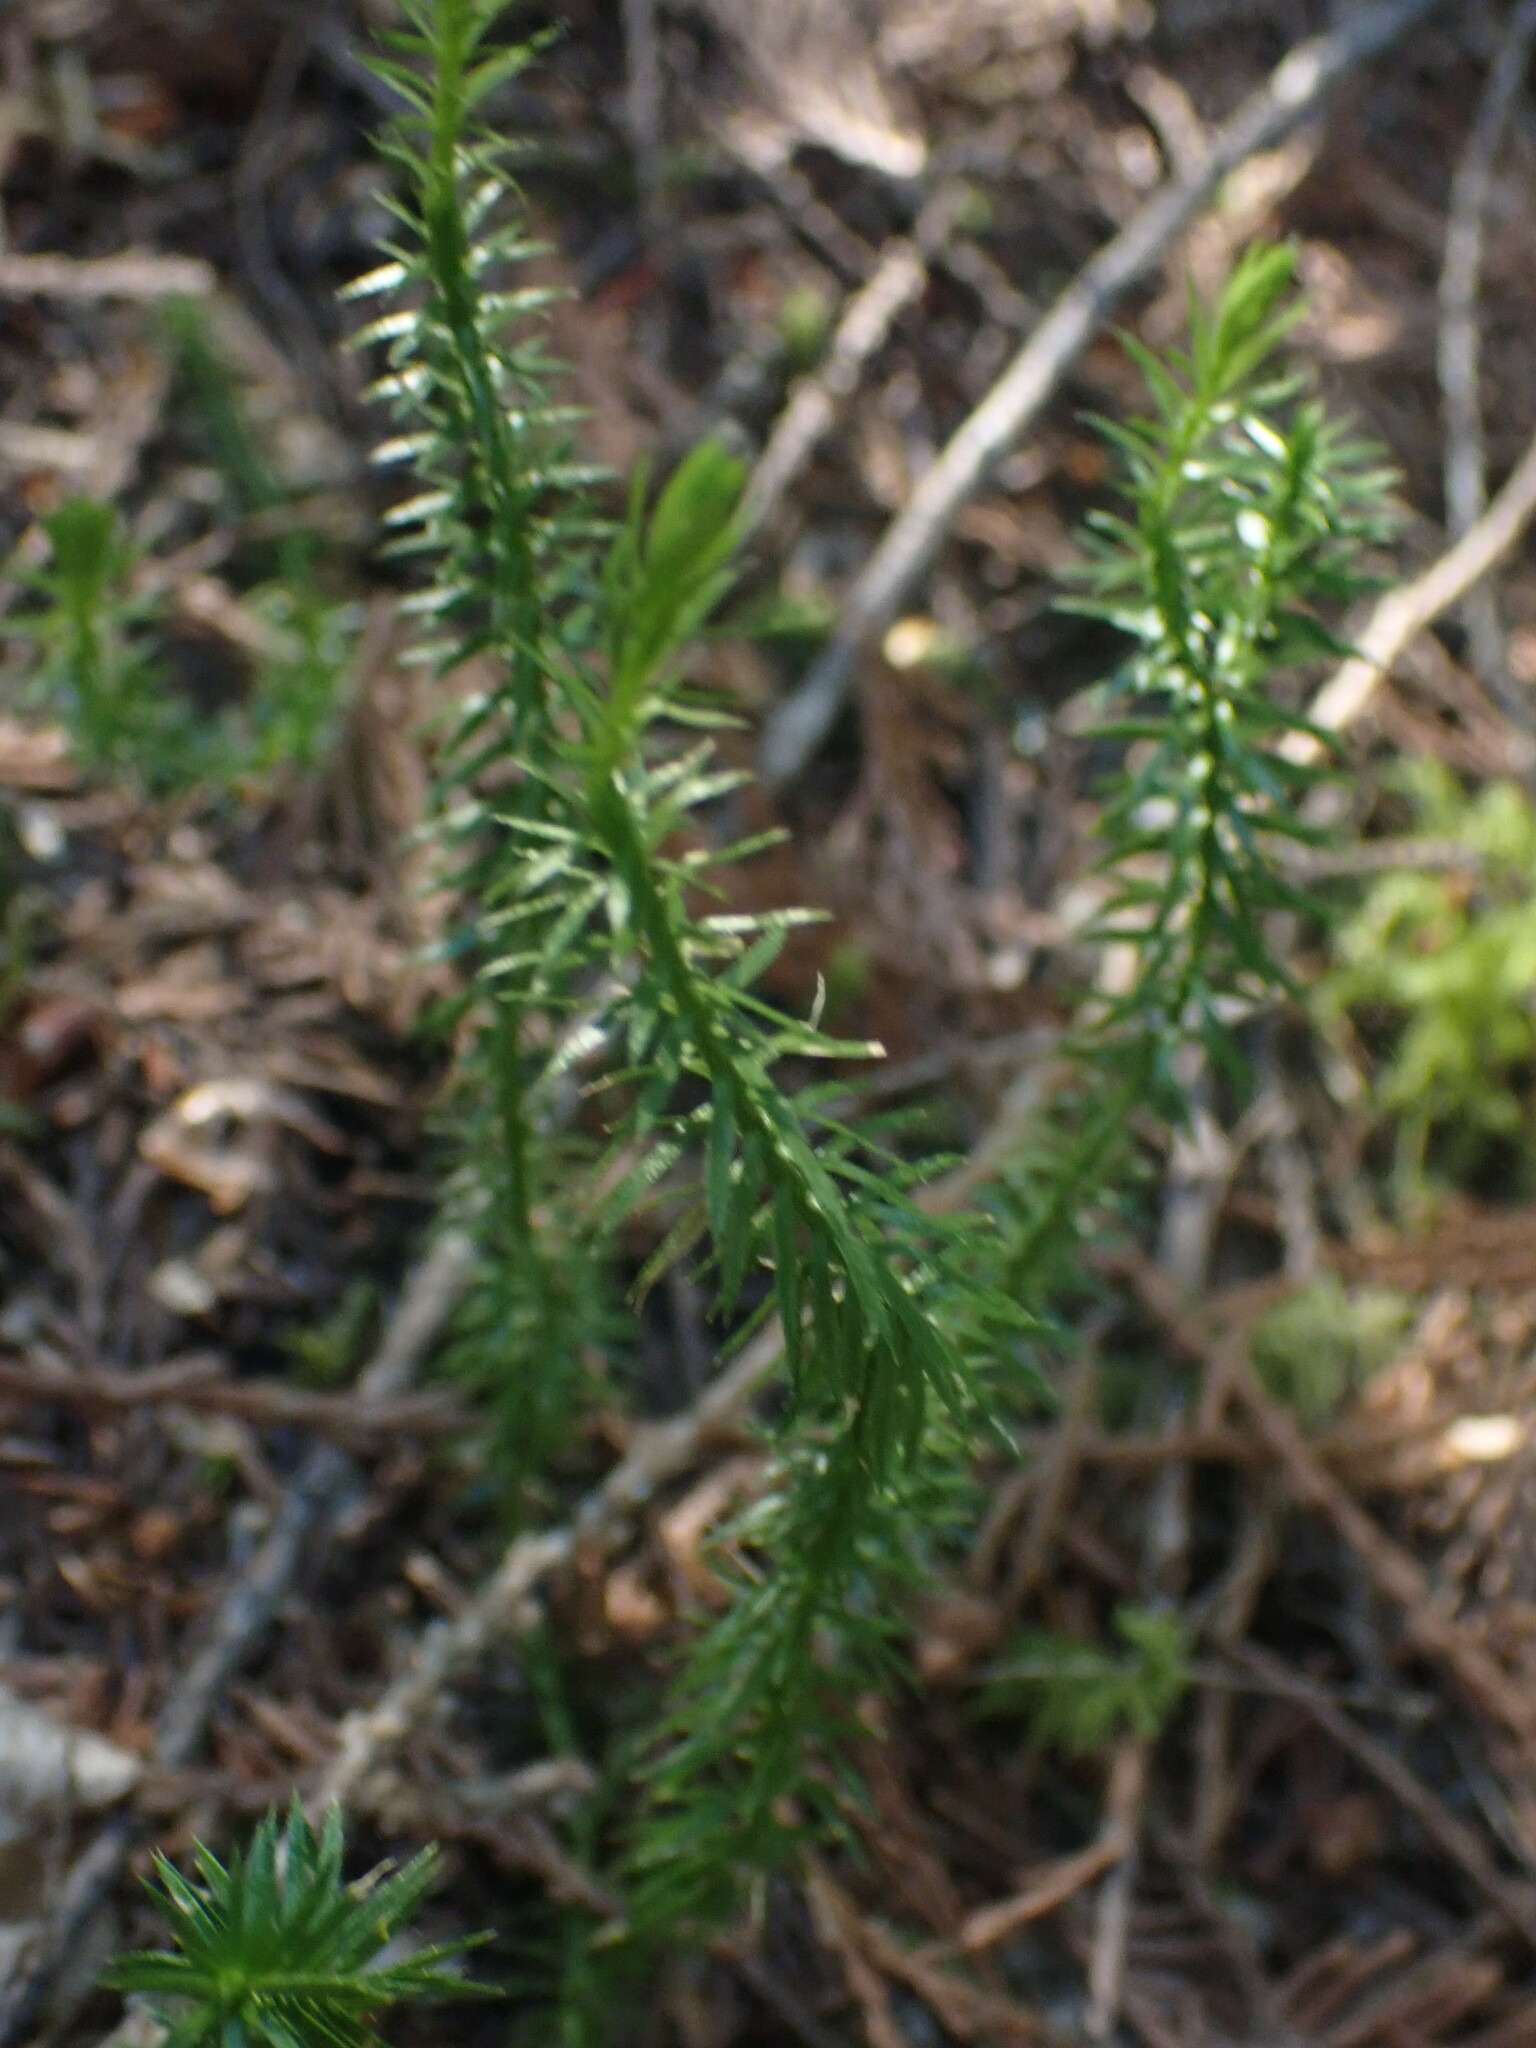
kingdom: Plantae
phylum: Tracheophyta
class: Lycopodiopsida
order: Lycopodiales
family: Lycopodiaceae
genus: Spinulum
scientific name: Spinulum annotinum
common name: Interrupted club-moss
